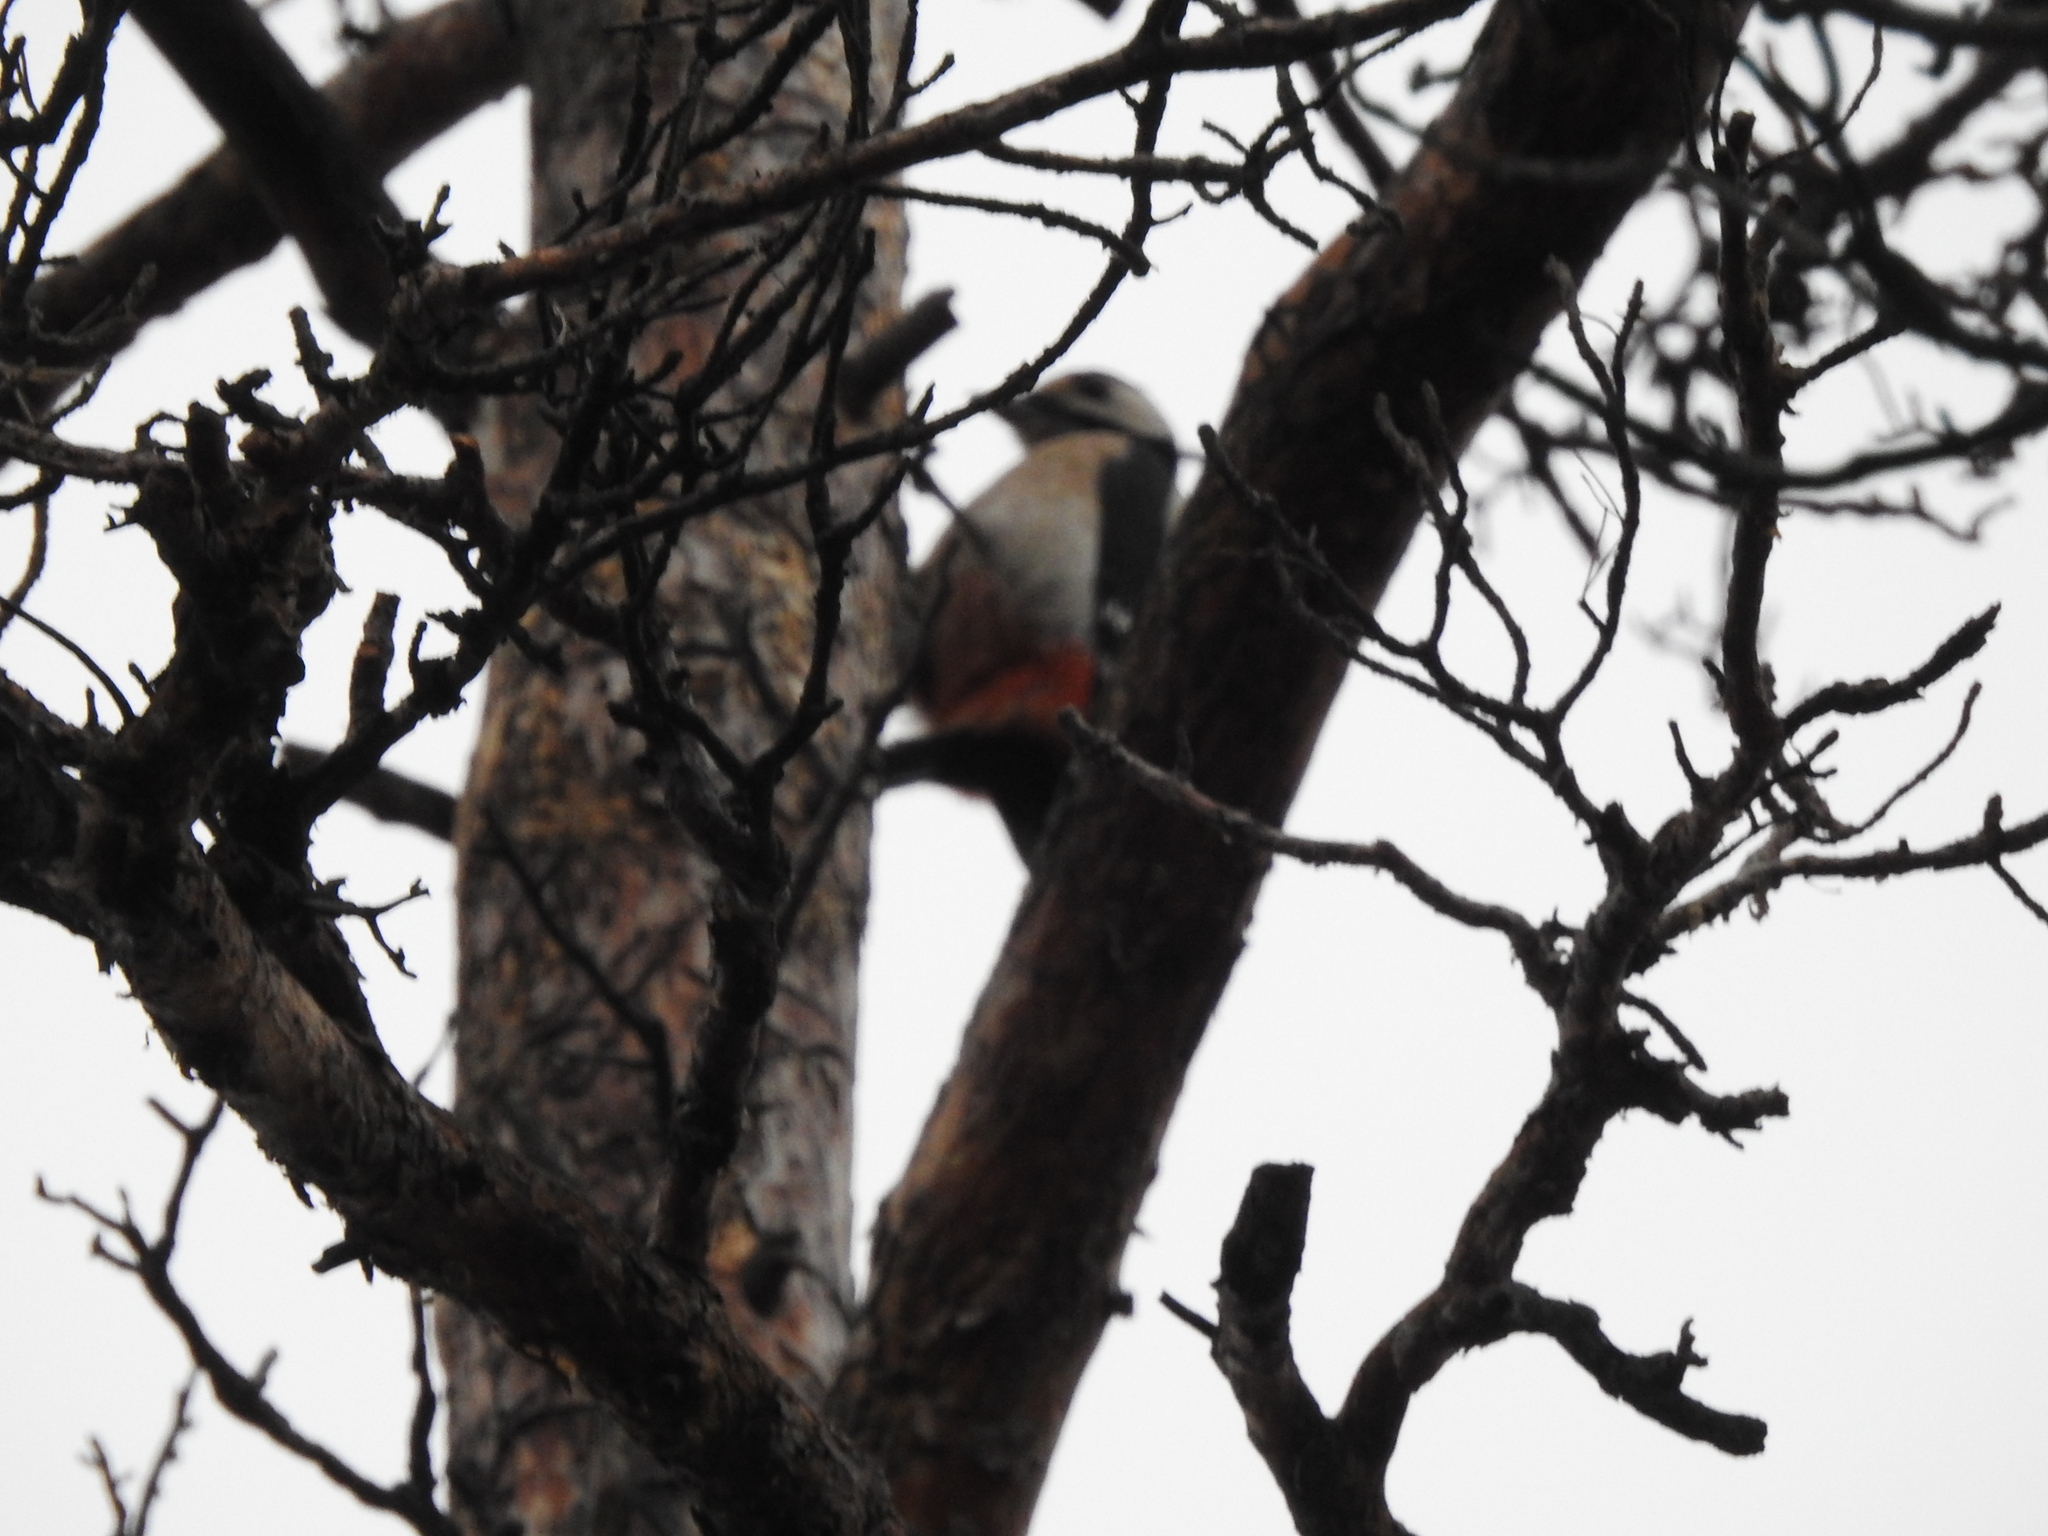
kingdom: Animalia
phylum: Chordata
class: Aves
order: Piciformes
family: Picidae
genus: Dendrocopos
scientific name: Dendrocopos major
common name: Great spotted woodpecker
